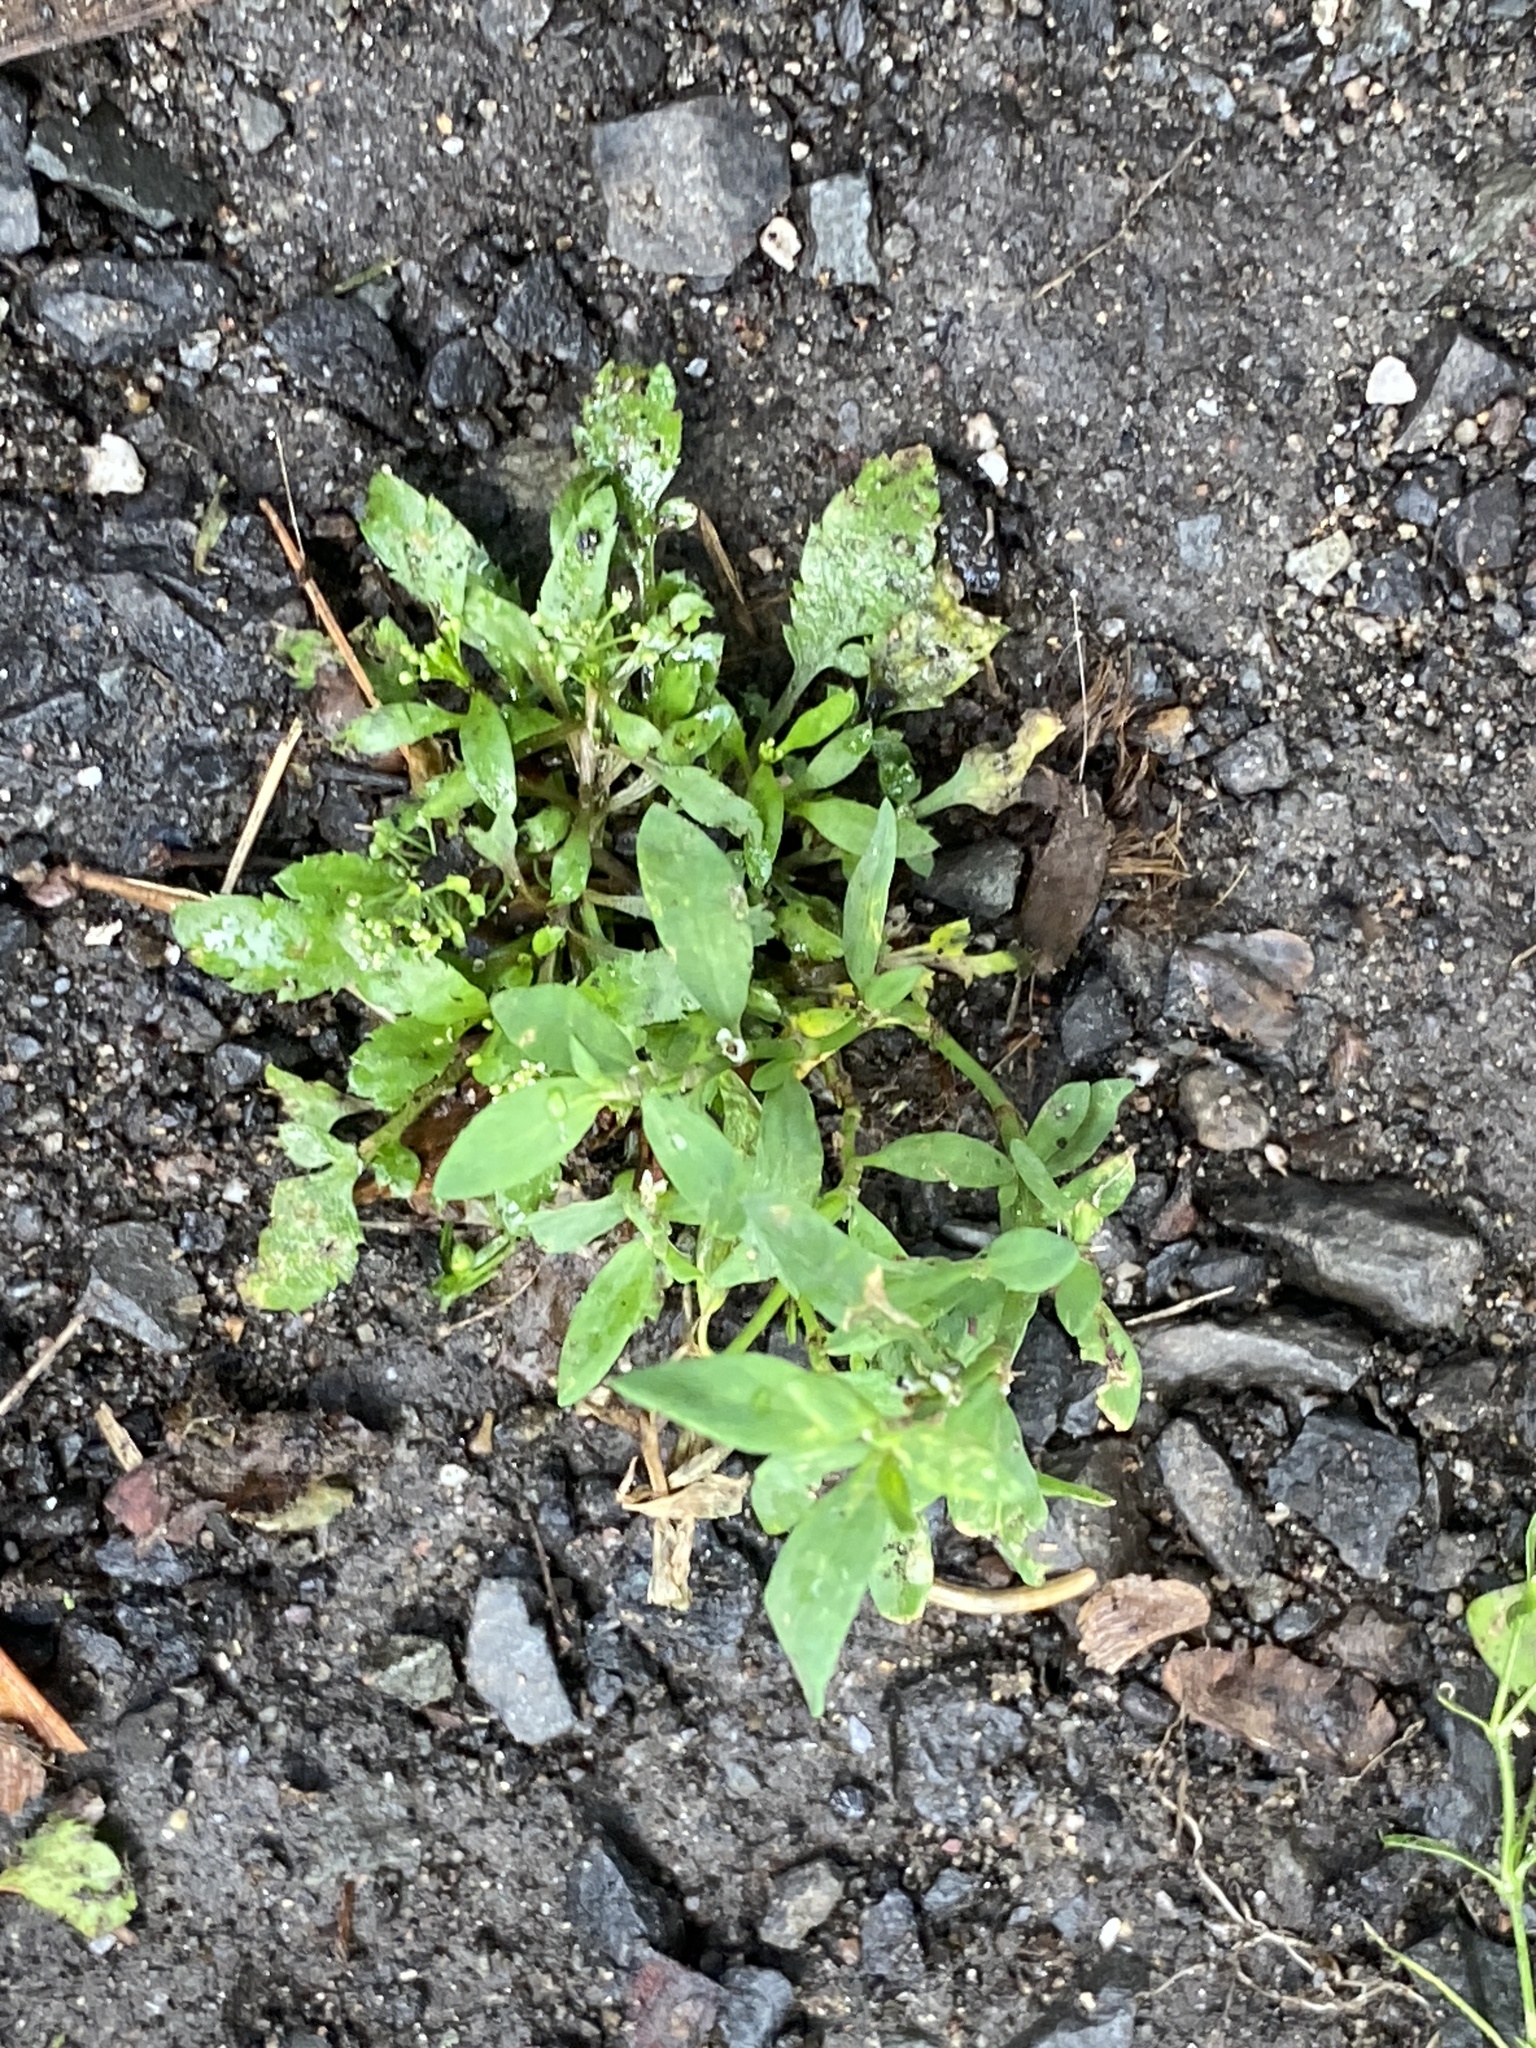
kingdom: Plantae
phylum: Tracheophyta
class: Magnoliopsida
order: Caryophyllales
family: Polygonaceae
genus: Polygonum
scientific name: Polygonum aviculare
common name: Prostrate knotweed
